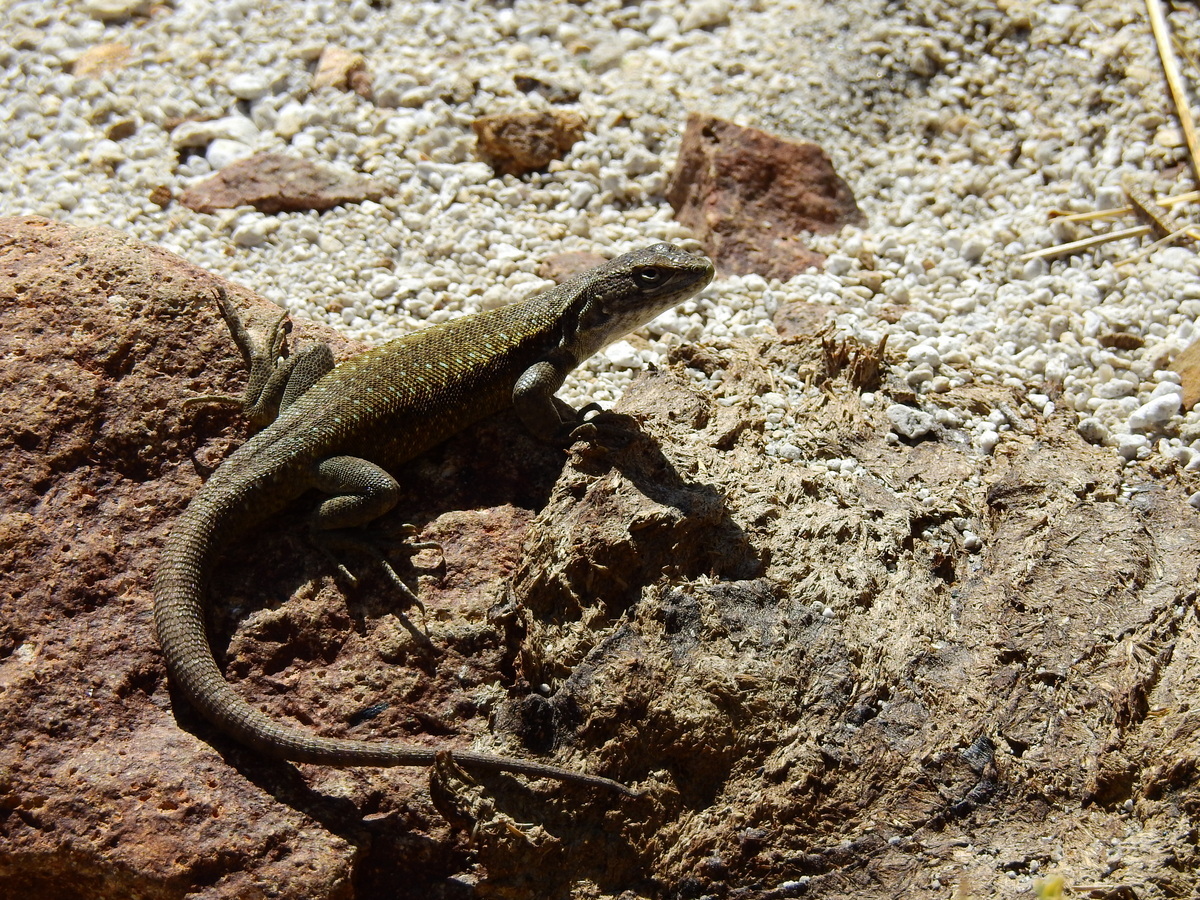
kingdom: Animalia
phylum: Chordata
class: Squamata
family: Liolaemidae
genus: Liolaemus
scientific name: Liolaemus smaug
